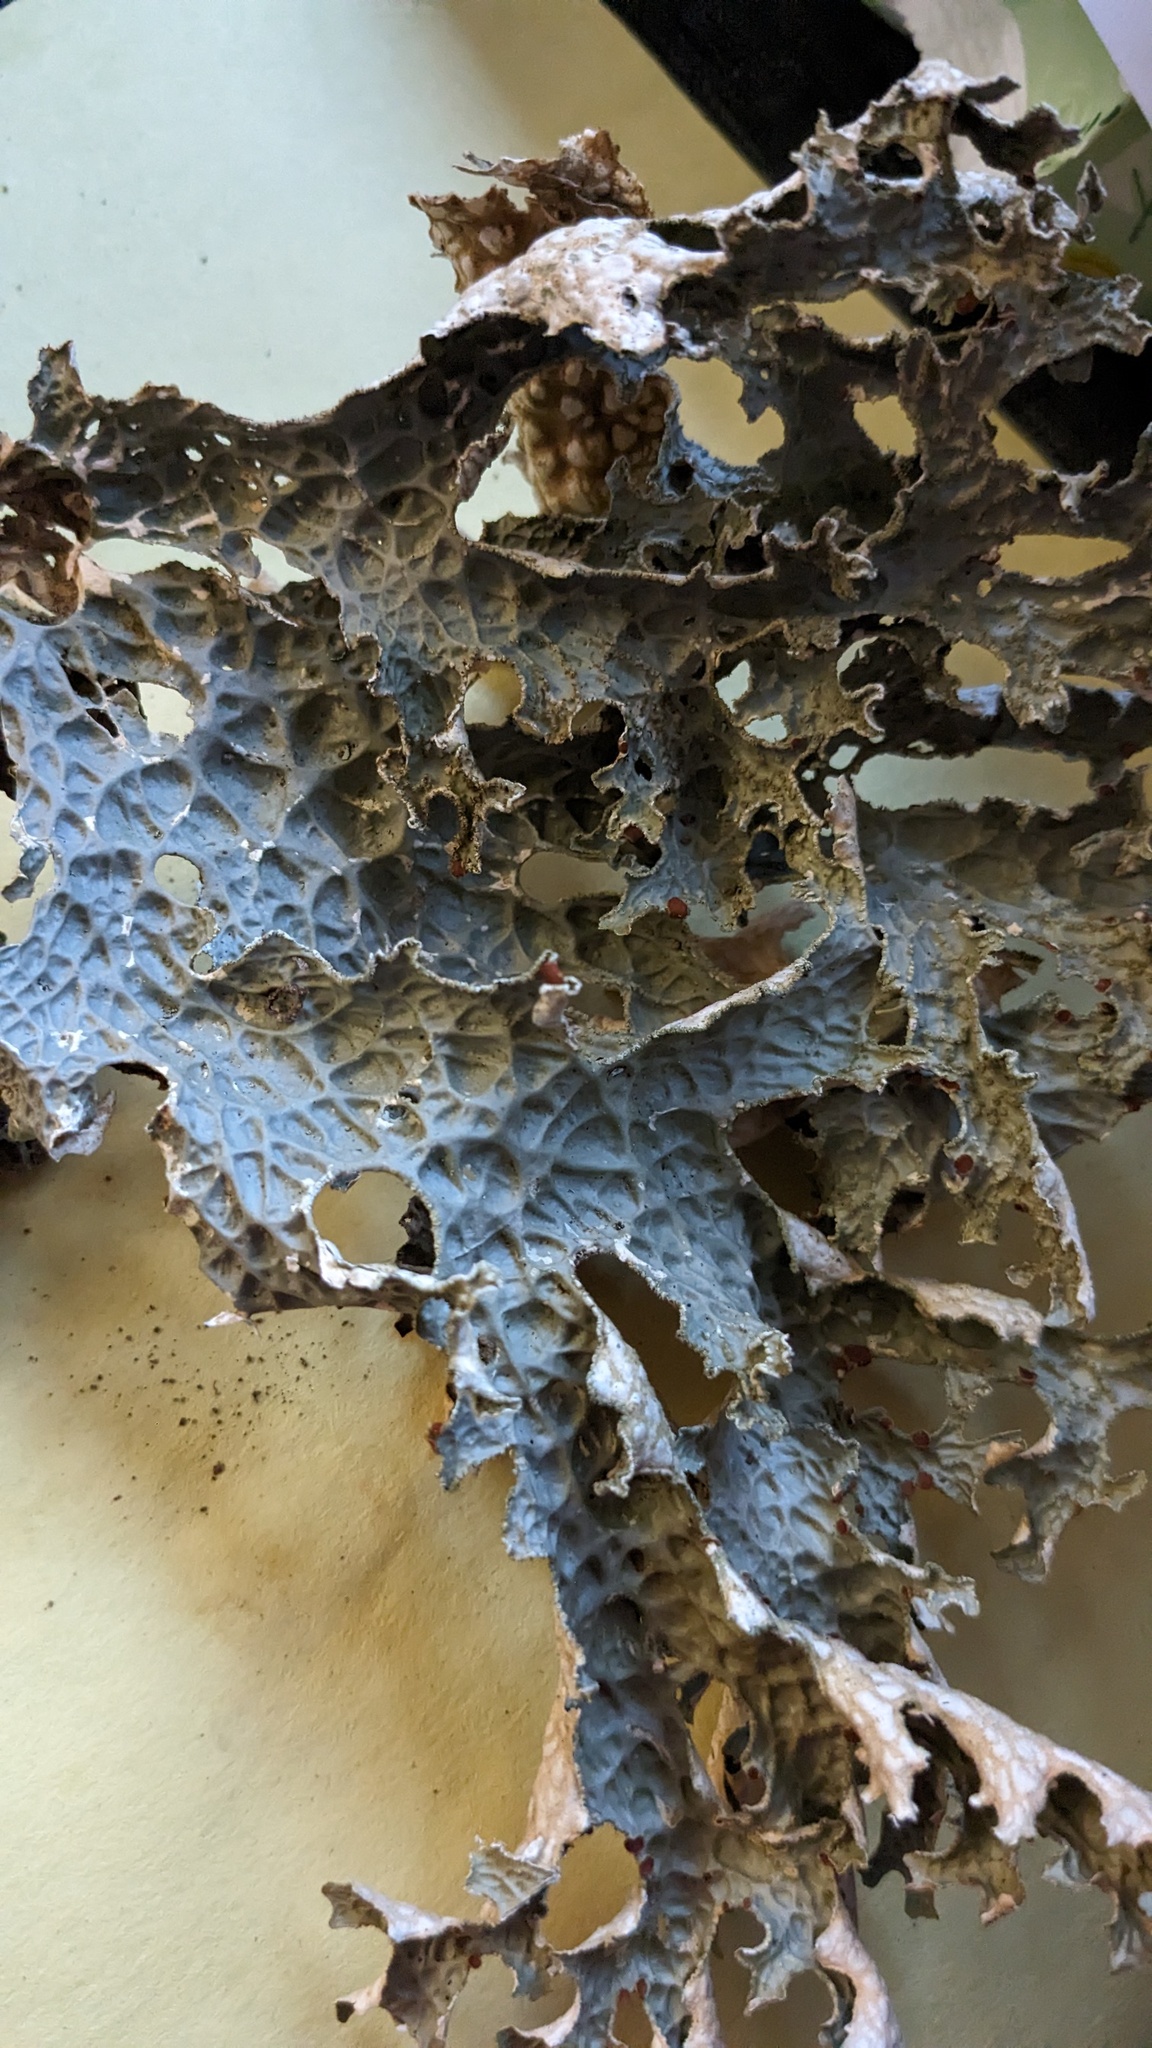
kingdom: Fungi
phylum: Ascomycota
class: Lecanoromycetes
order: Peltigerales
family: Lobariaceae
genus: Lobaria
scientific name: Lobaria pulmonaria
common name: Lungwort
